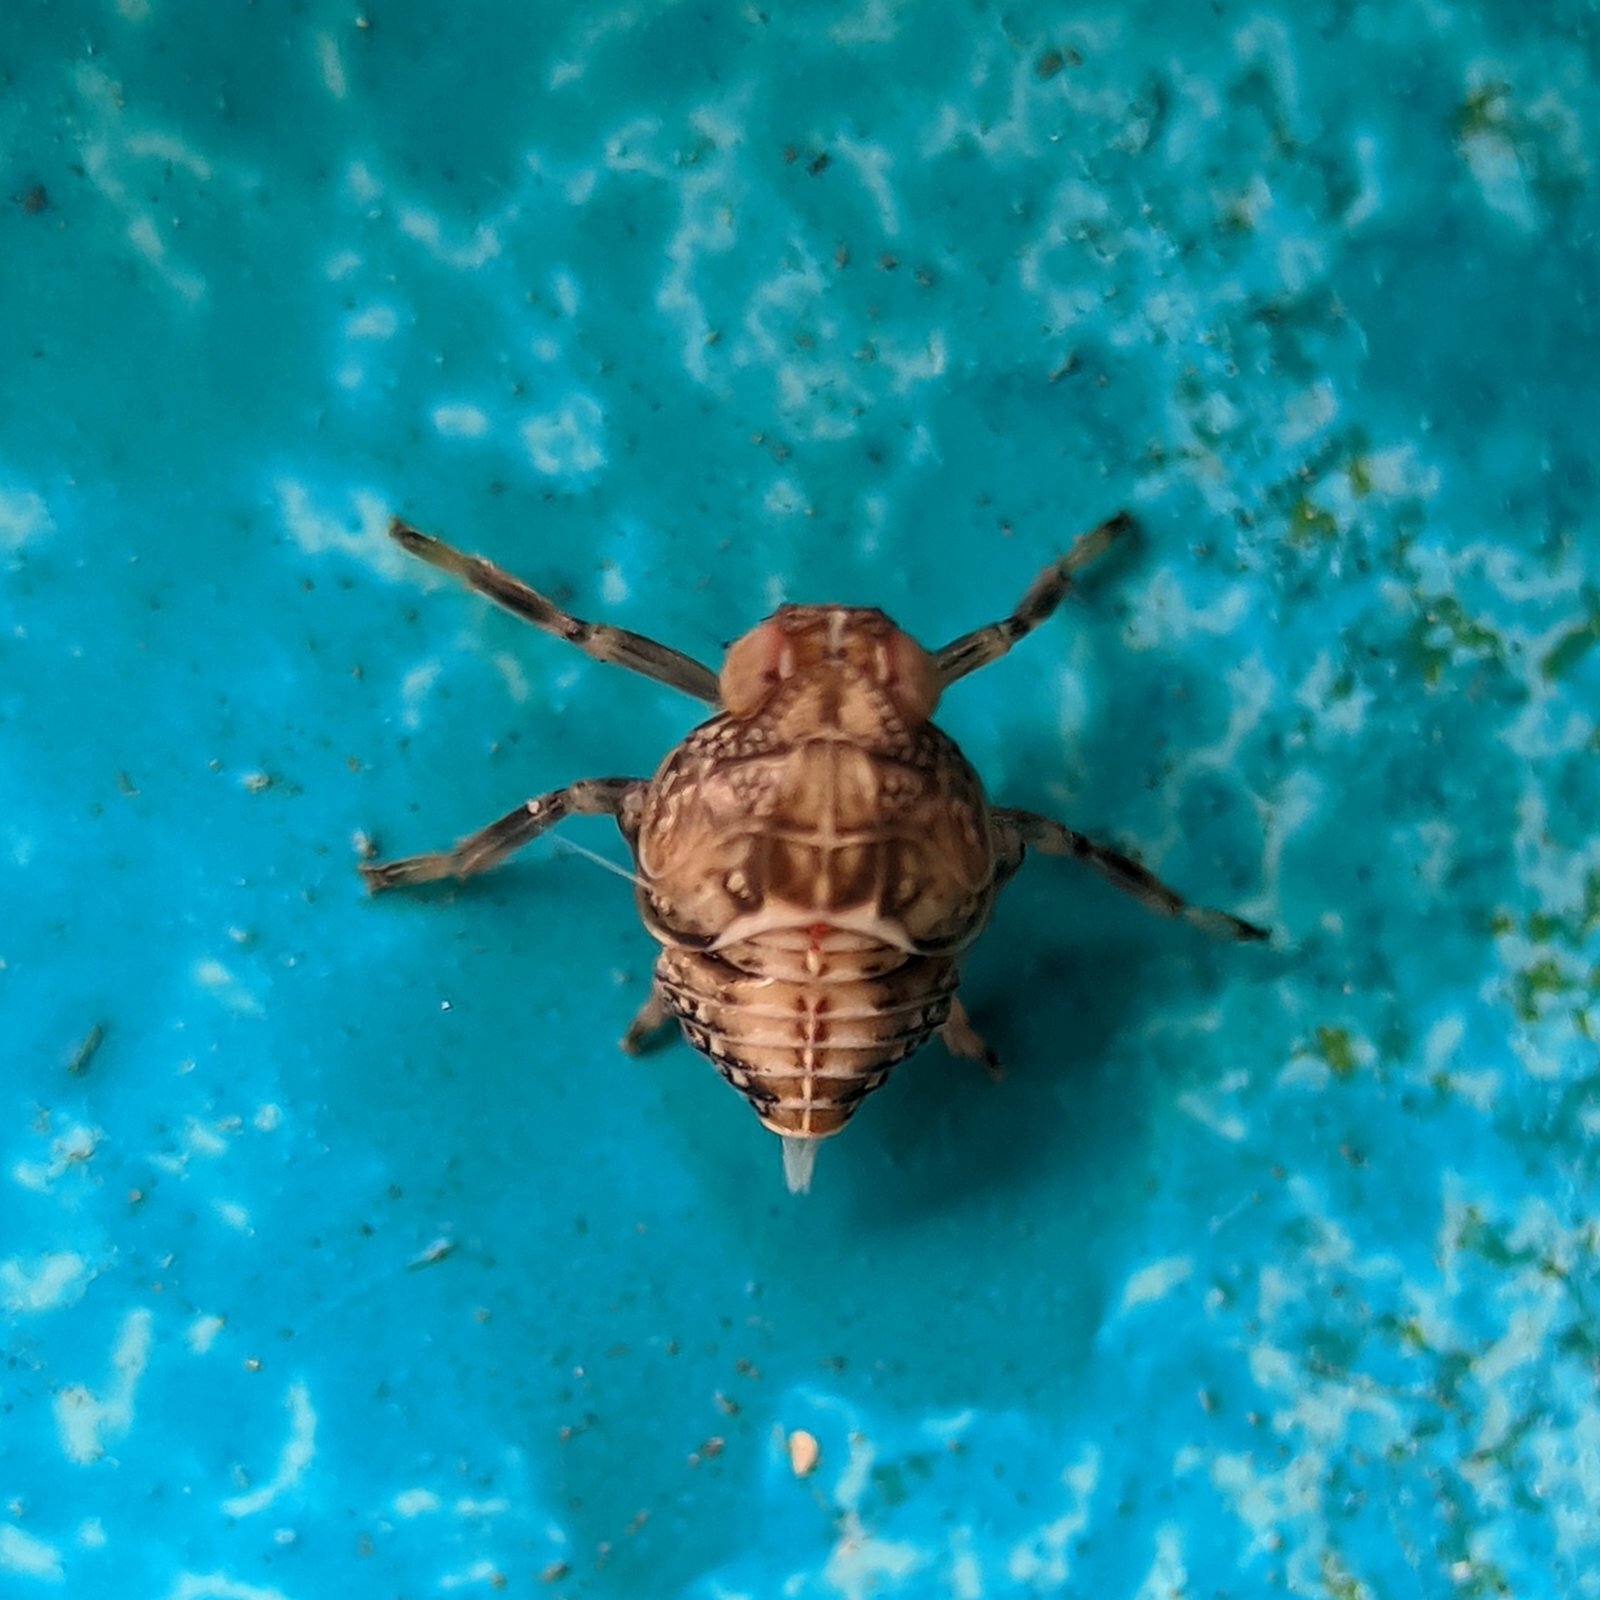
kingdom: Animalia
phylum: Arthropoda
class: Insecta
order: Hemiptera
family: Issidae
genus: Issus
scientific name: Issus coleoptratus
